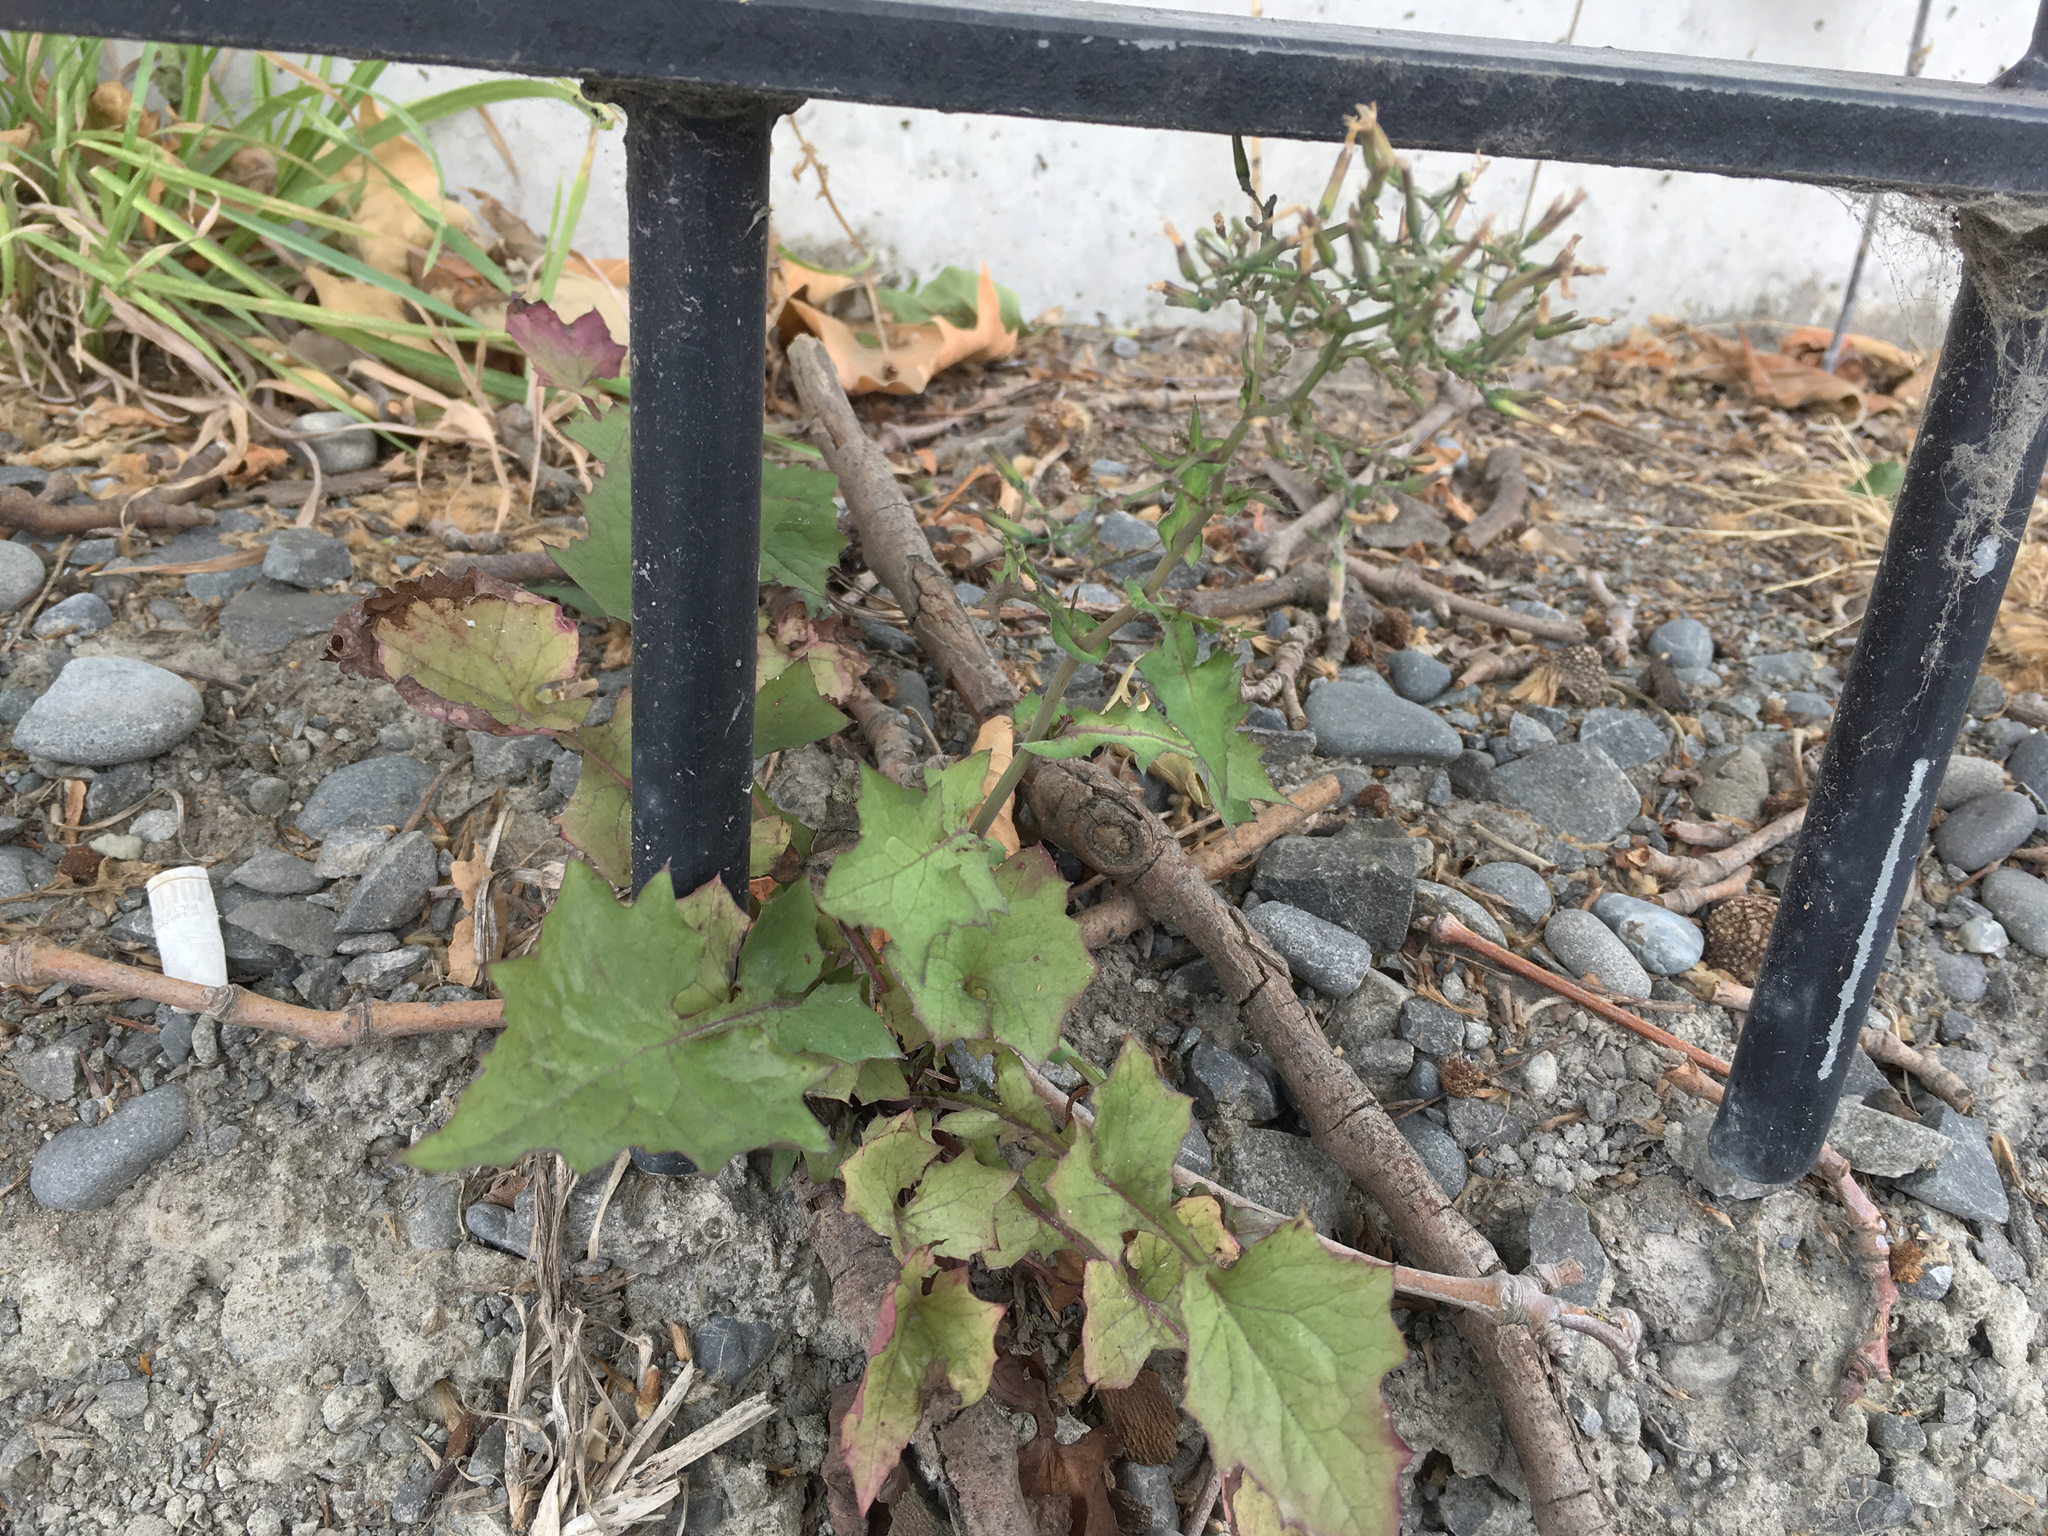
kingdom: Plantae
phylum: Tracheophyta
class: Magnoliopsida
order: Asterales
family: Asteraceae
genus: Mycelis
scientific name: Mycelis muralis
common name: Wall lettuce
